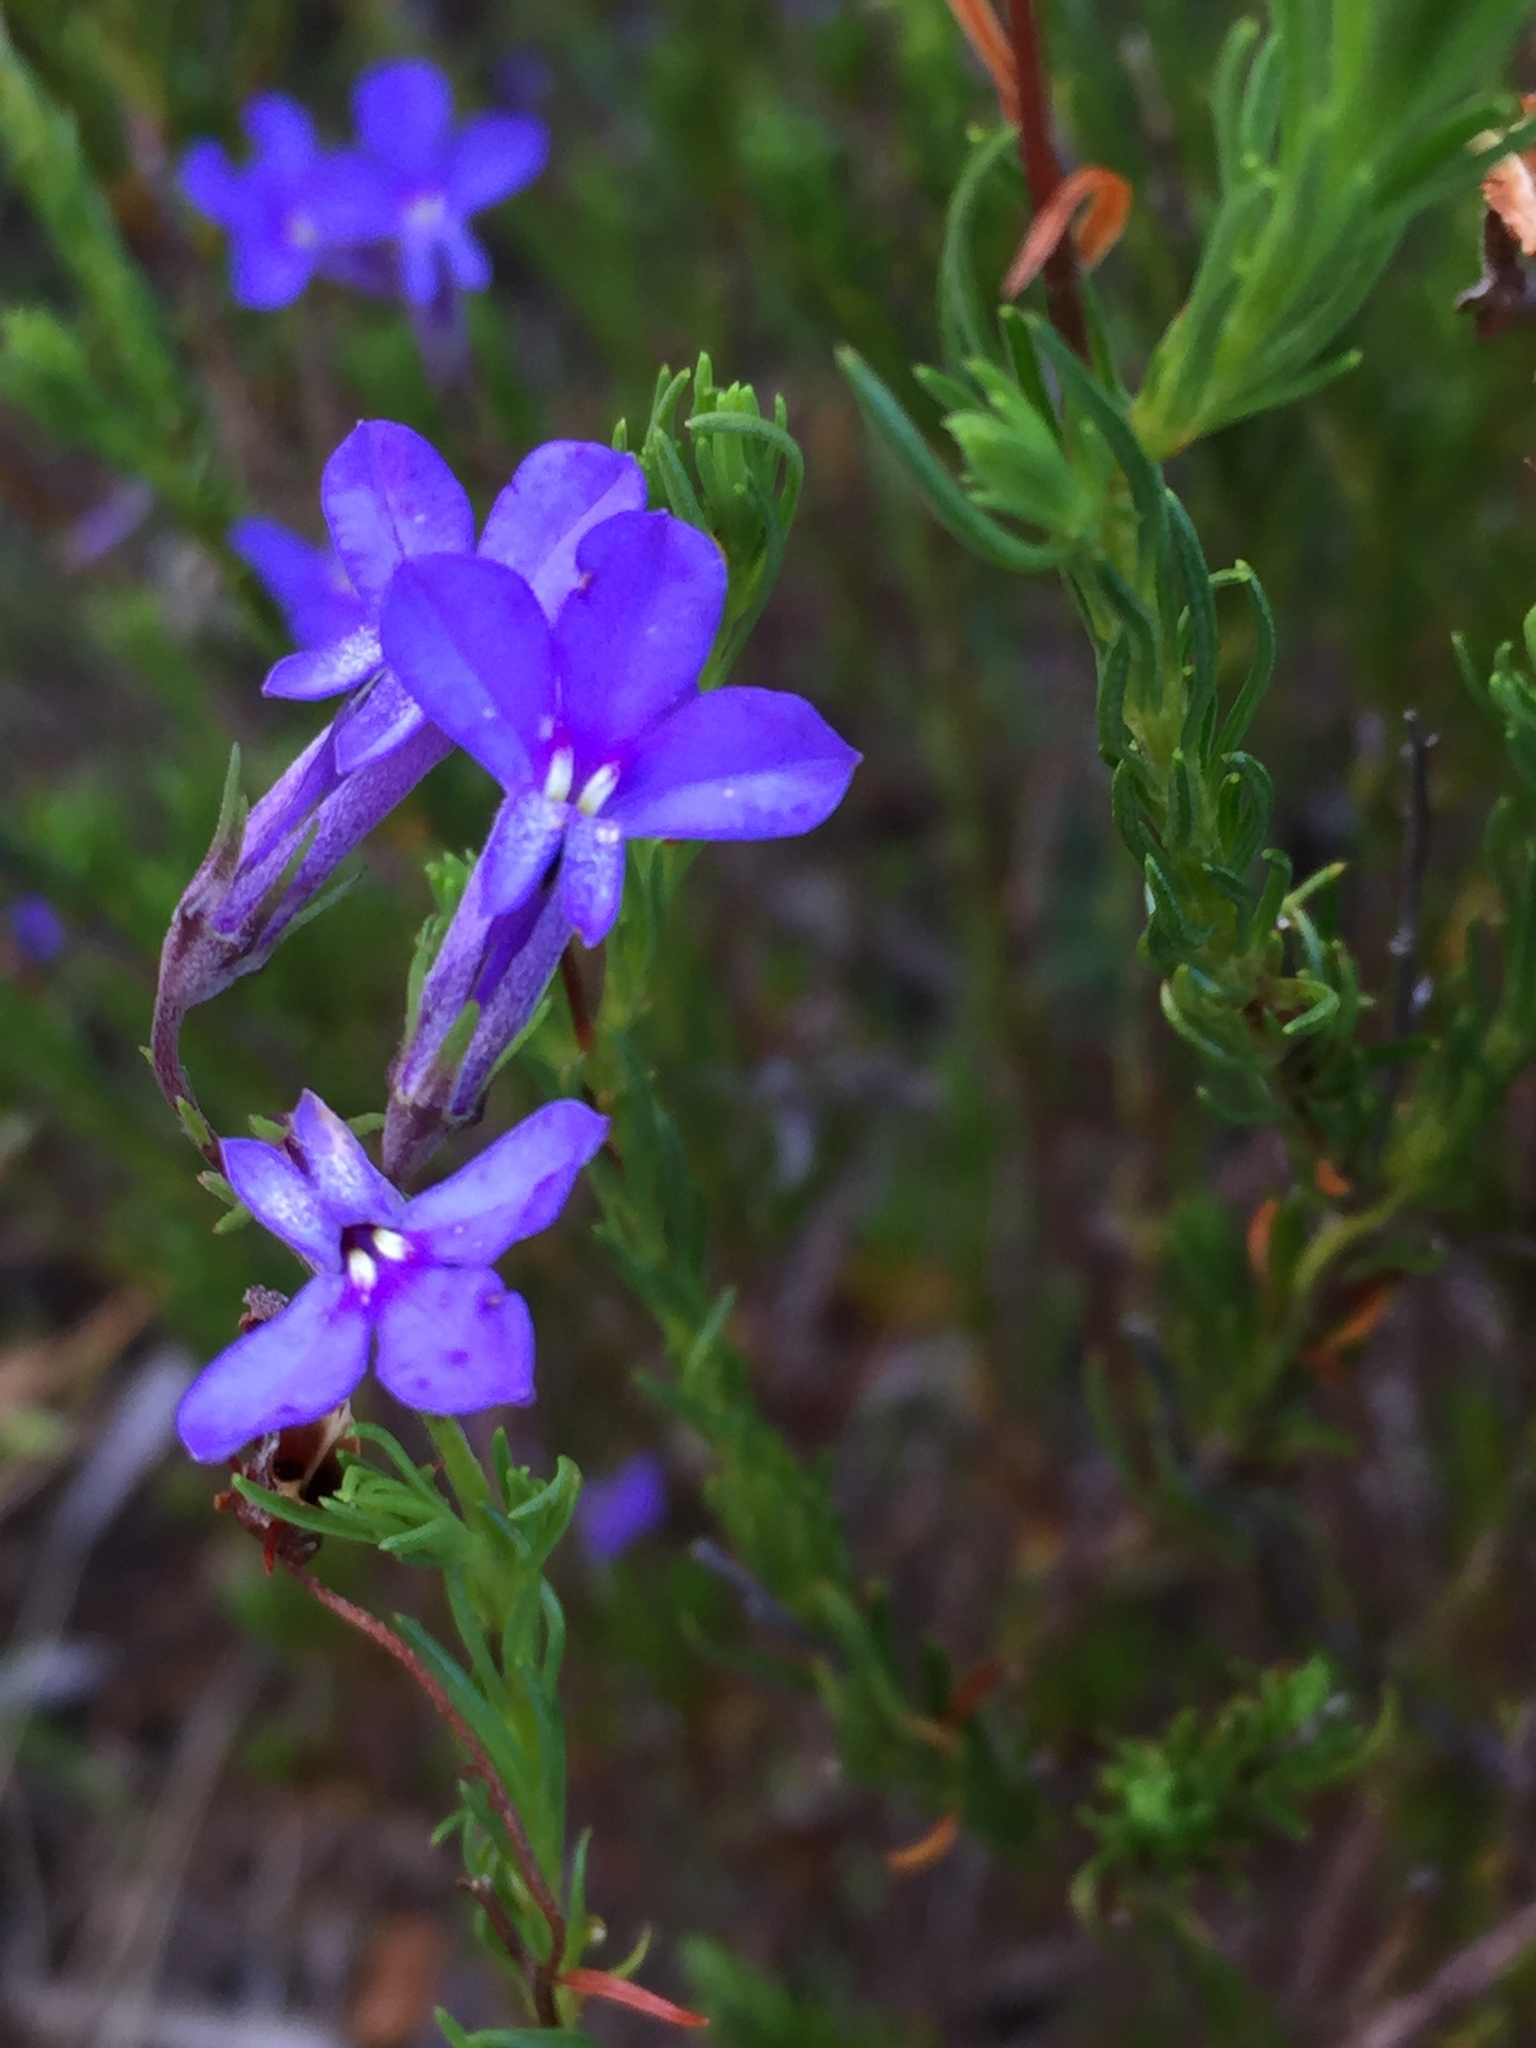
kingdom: Plantae
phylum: Tracheophyta
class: Magnoliopsida
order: Asterales
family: Campanulaceae
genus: Lobelia
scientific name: Lobelia pinifolia
